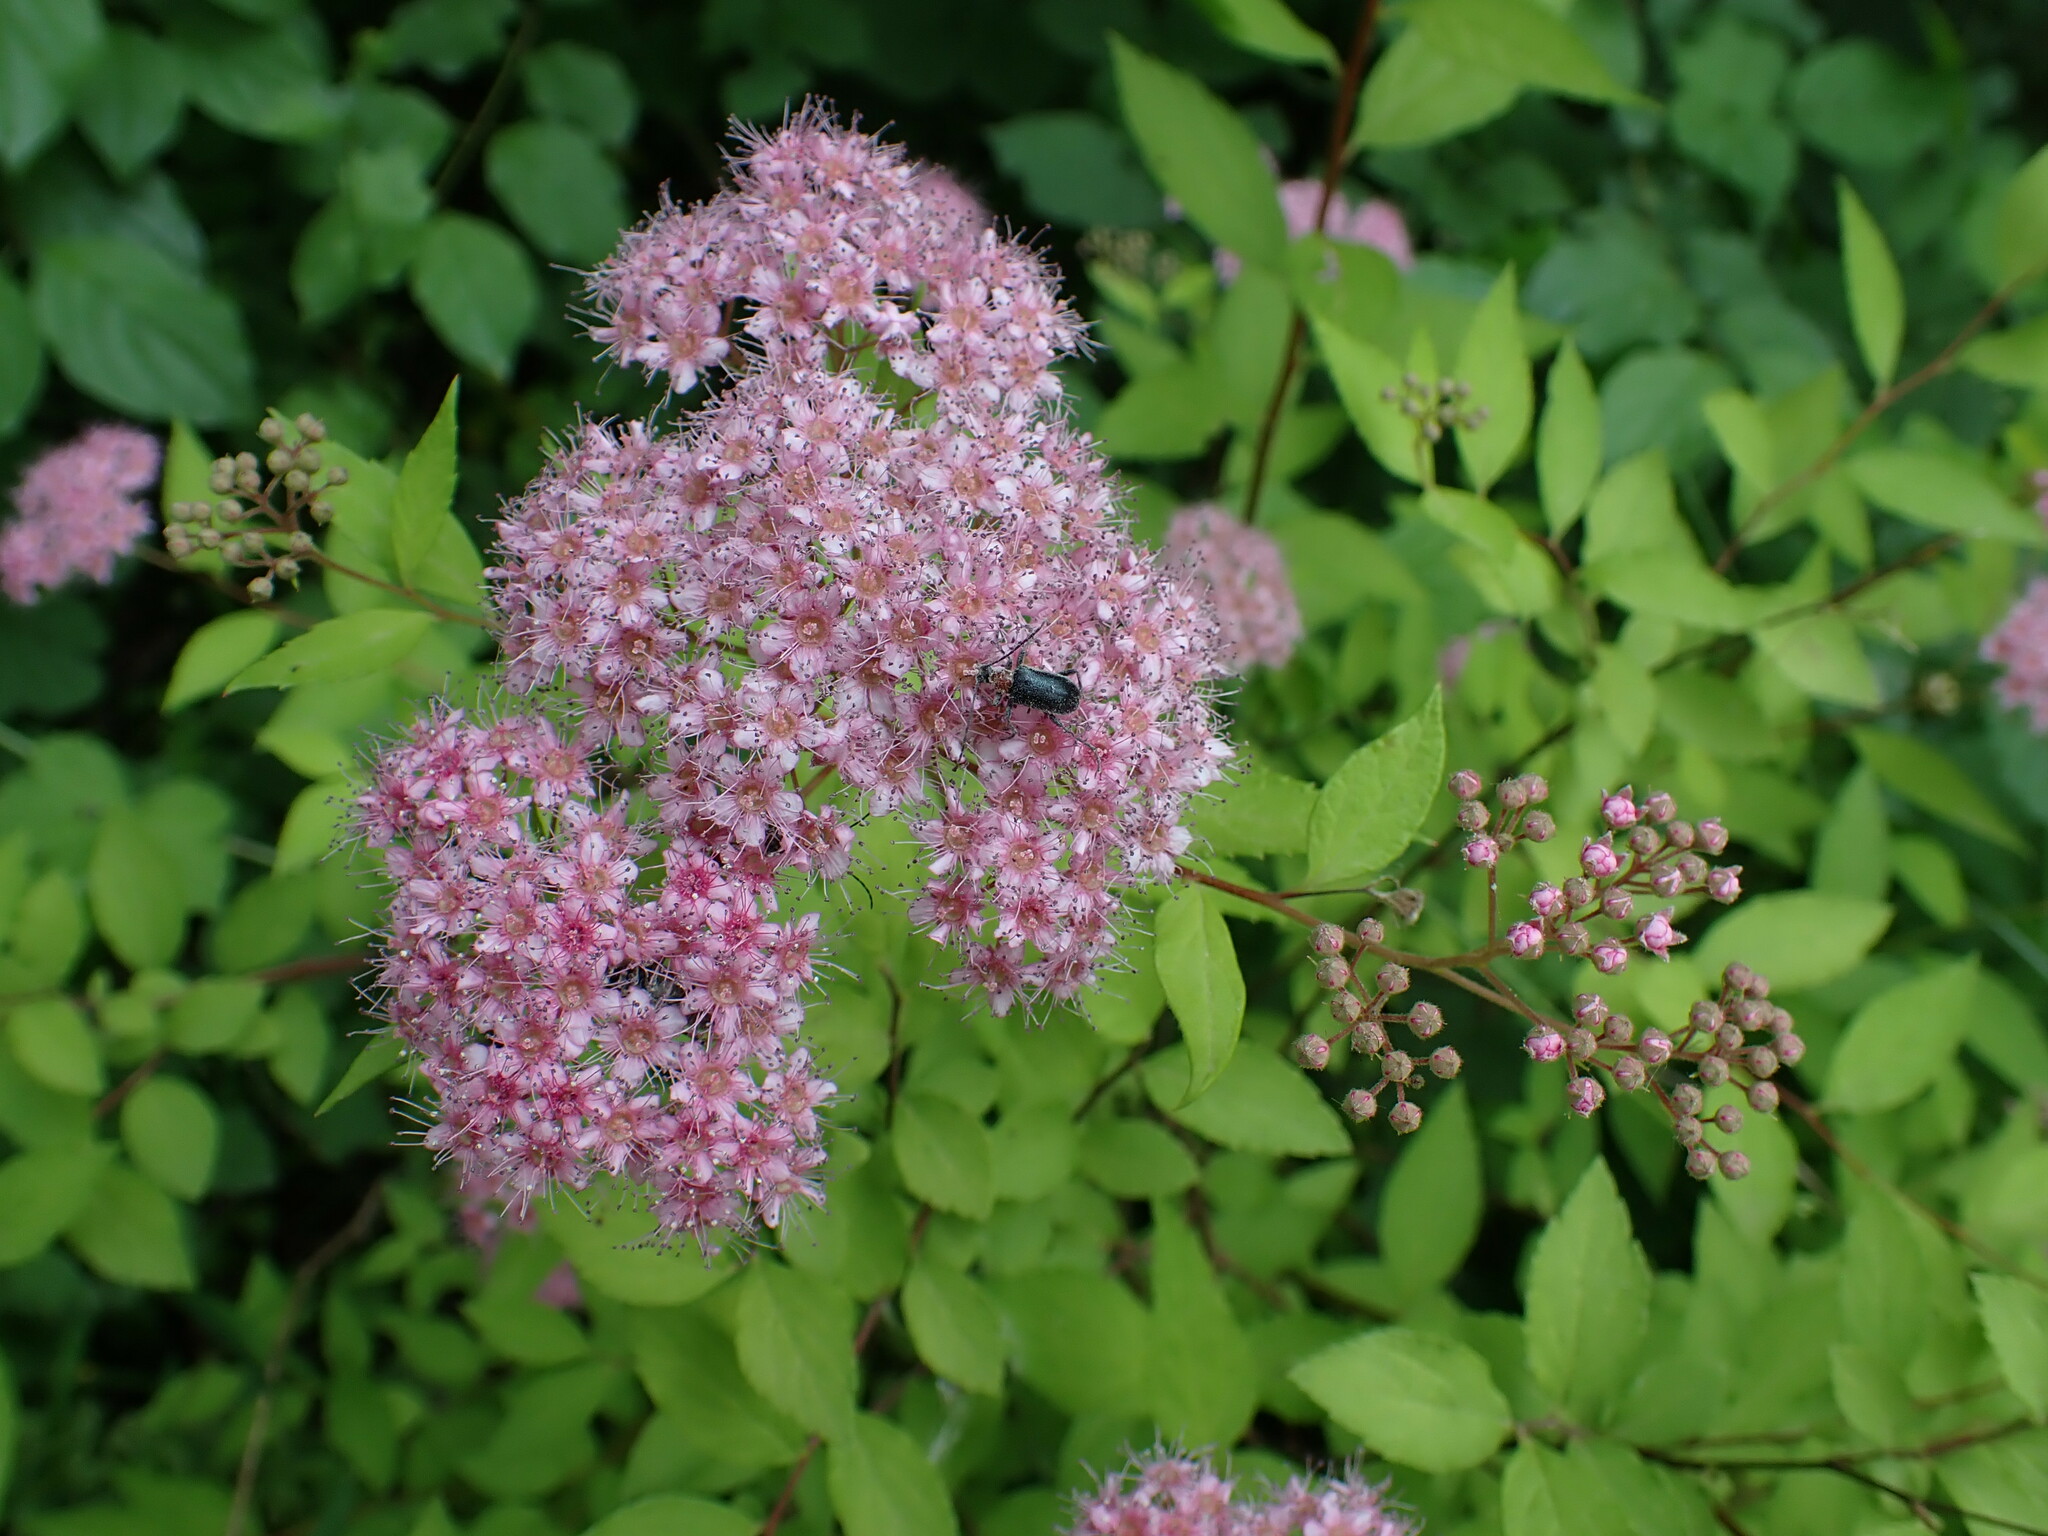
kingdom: Plantae
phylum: Tracheophyta
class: Magnoliopsida
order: Rosales
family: Rosaceae
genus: Spiraea
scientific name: Spiraea japonica
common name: Japanese spiraea
